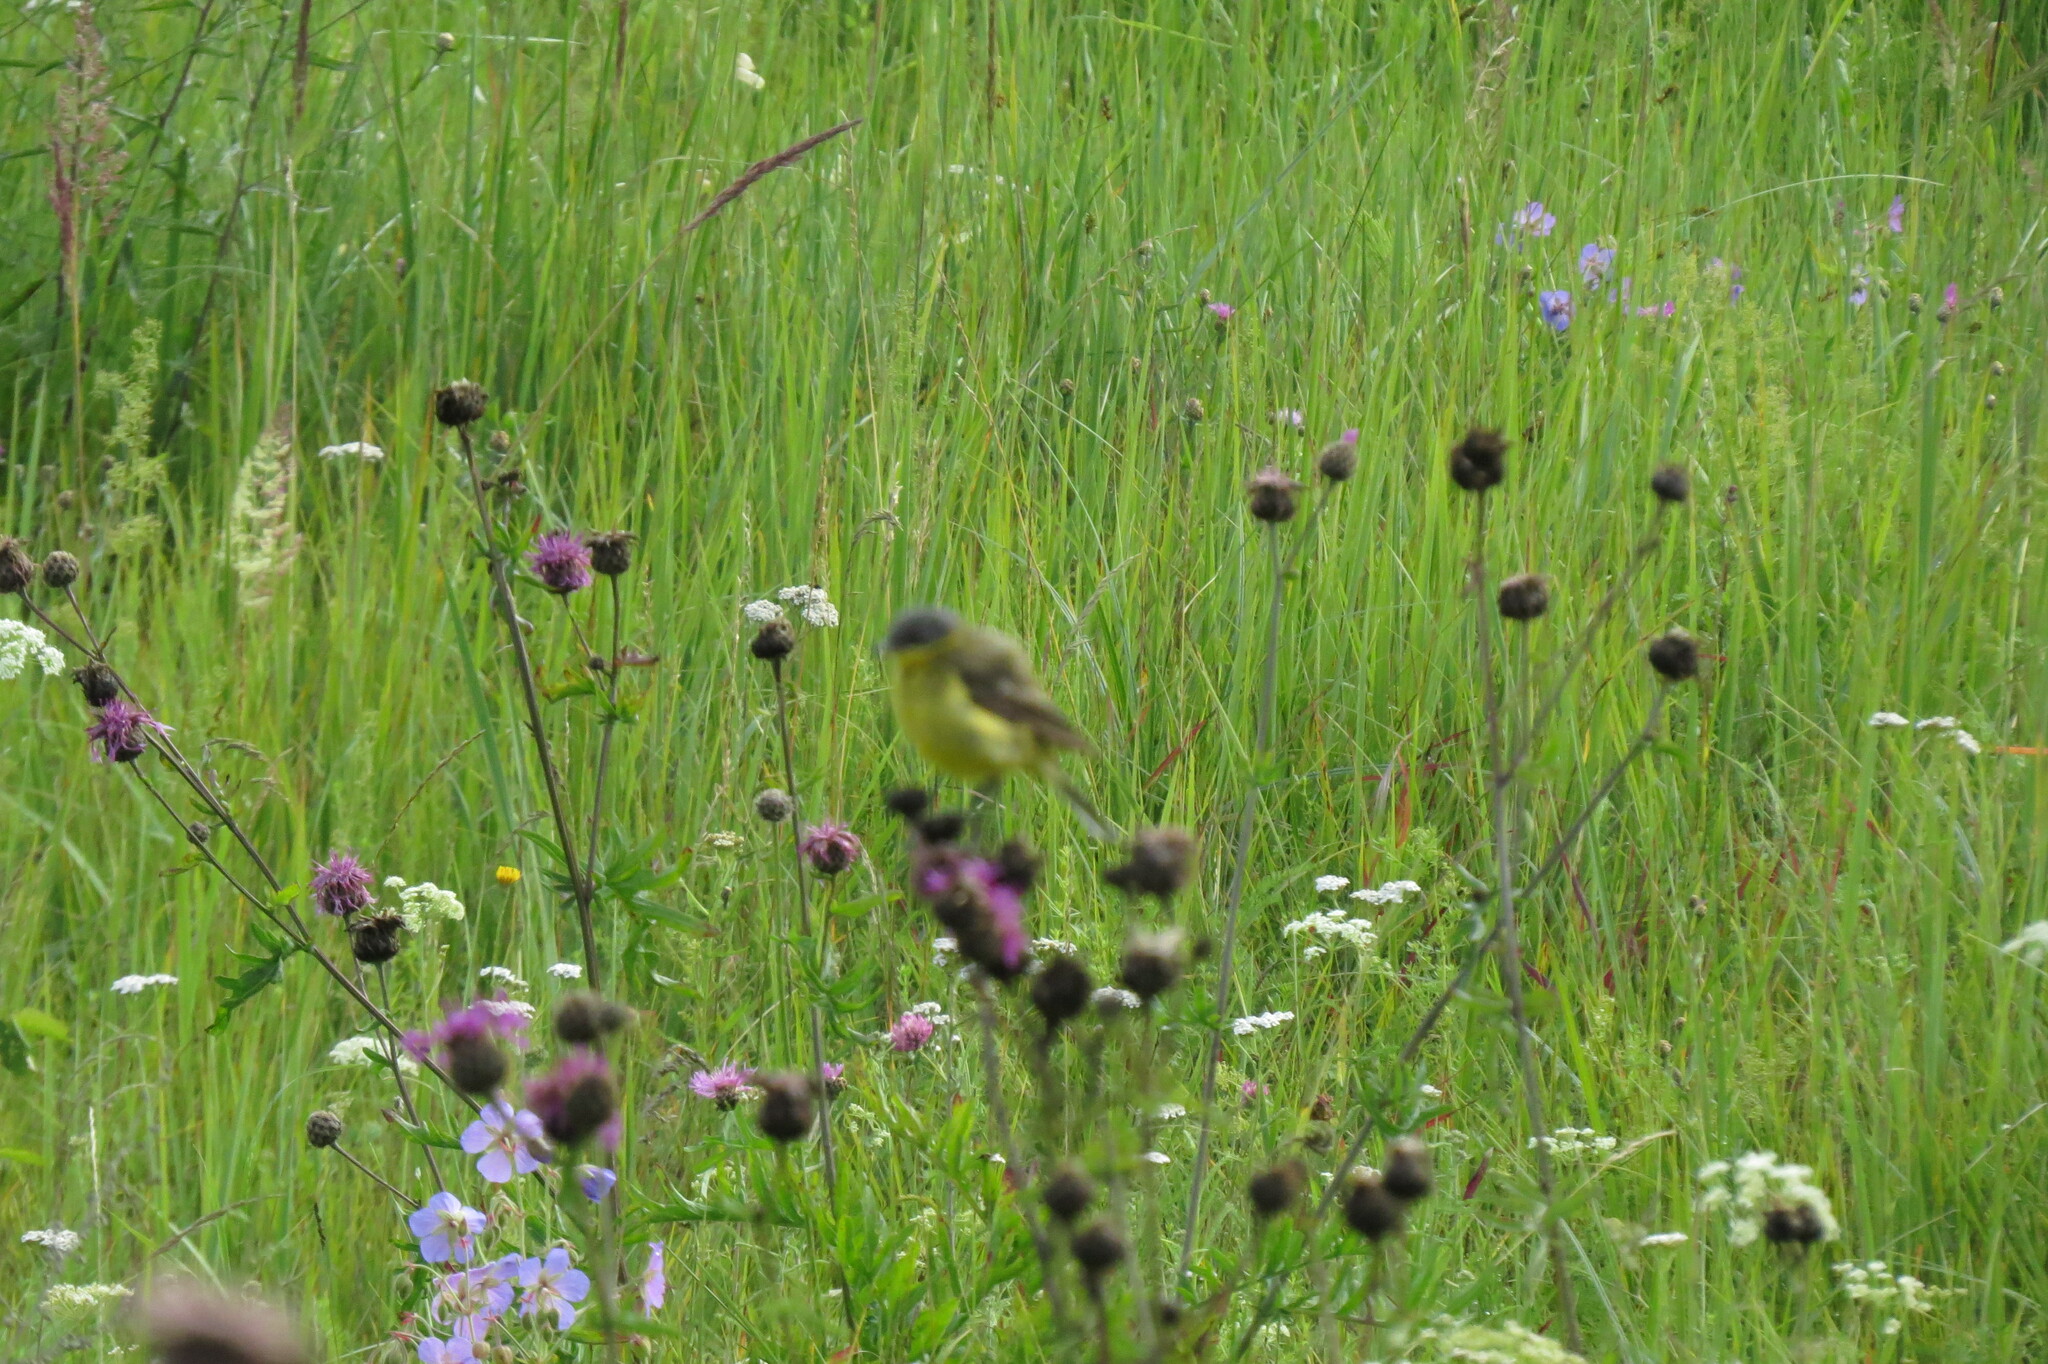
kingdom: Animalia
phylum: Chordata
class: Aves
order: Passeriformes
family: Motacillidae
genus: Motacilla
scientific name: Motacilla flava
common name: Western yellow wagtail
